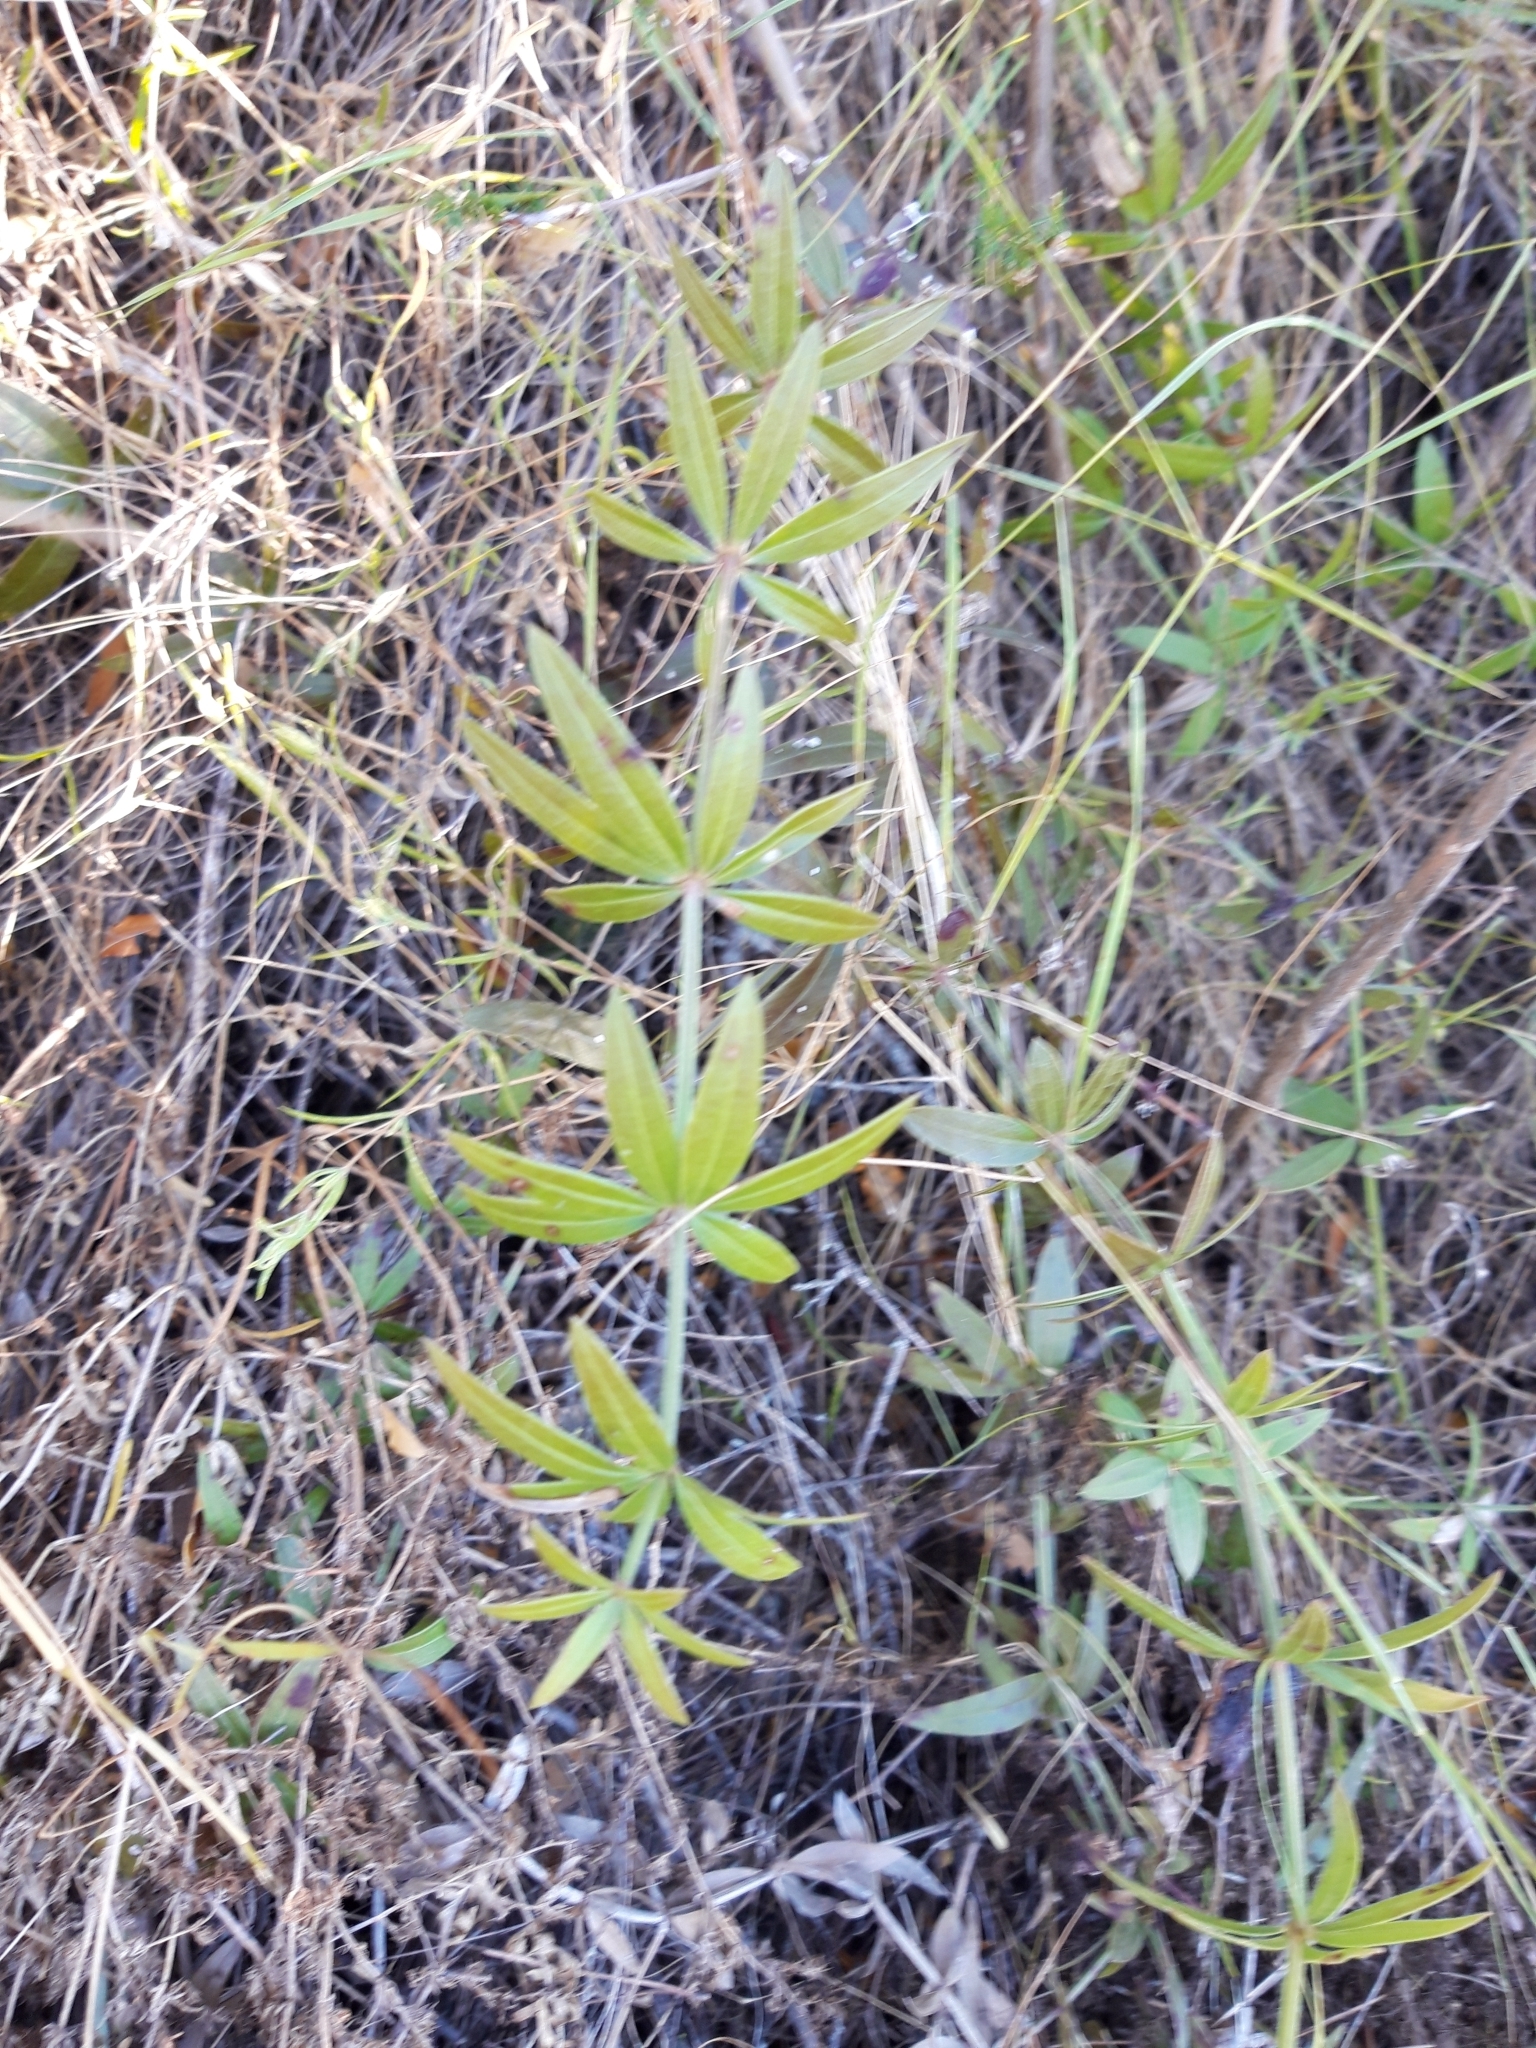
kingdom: Plantae
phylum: Tracheophyta
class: Magnoliopsida
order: Gentianales
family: Rubiaceae
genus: Rubia
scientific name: Rubia peregrina
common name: Wild madder
